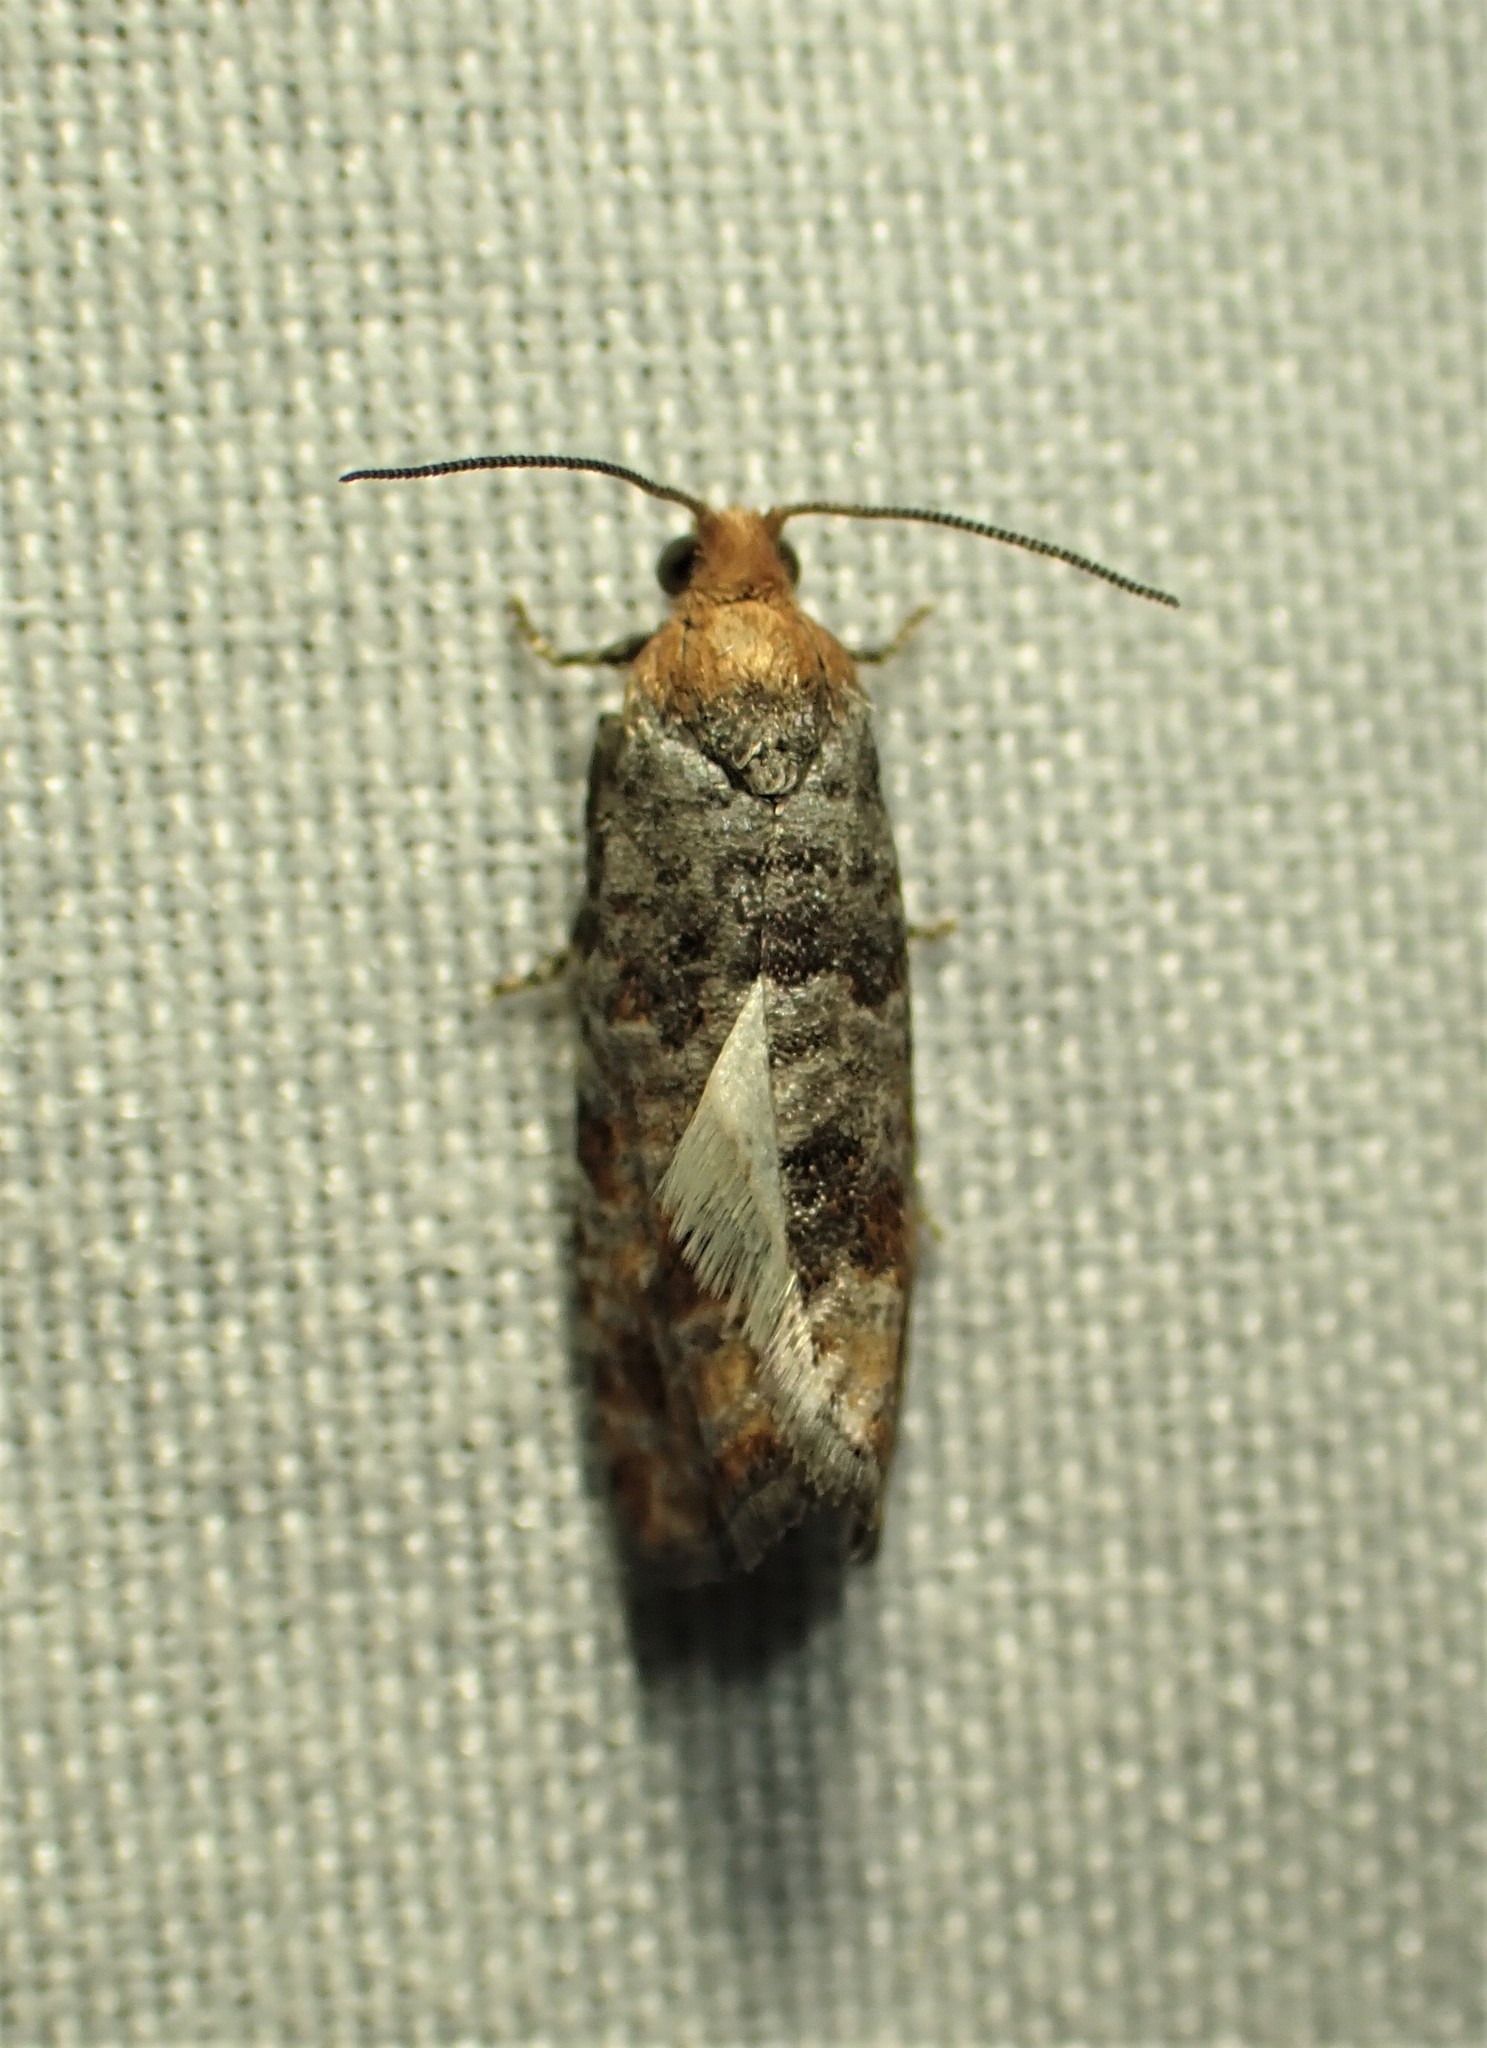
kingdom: Animalia
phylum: Arthropoda
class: Insecta
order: Lepidoptera
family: Tortricidae
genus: Eucopina
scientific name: Eucopina tocullionana
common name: White pinecone borer moth
